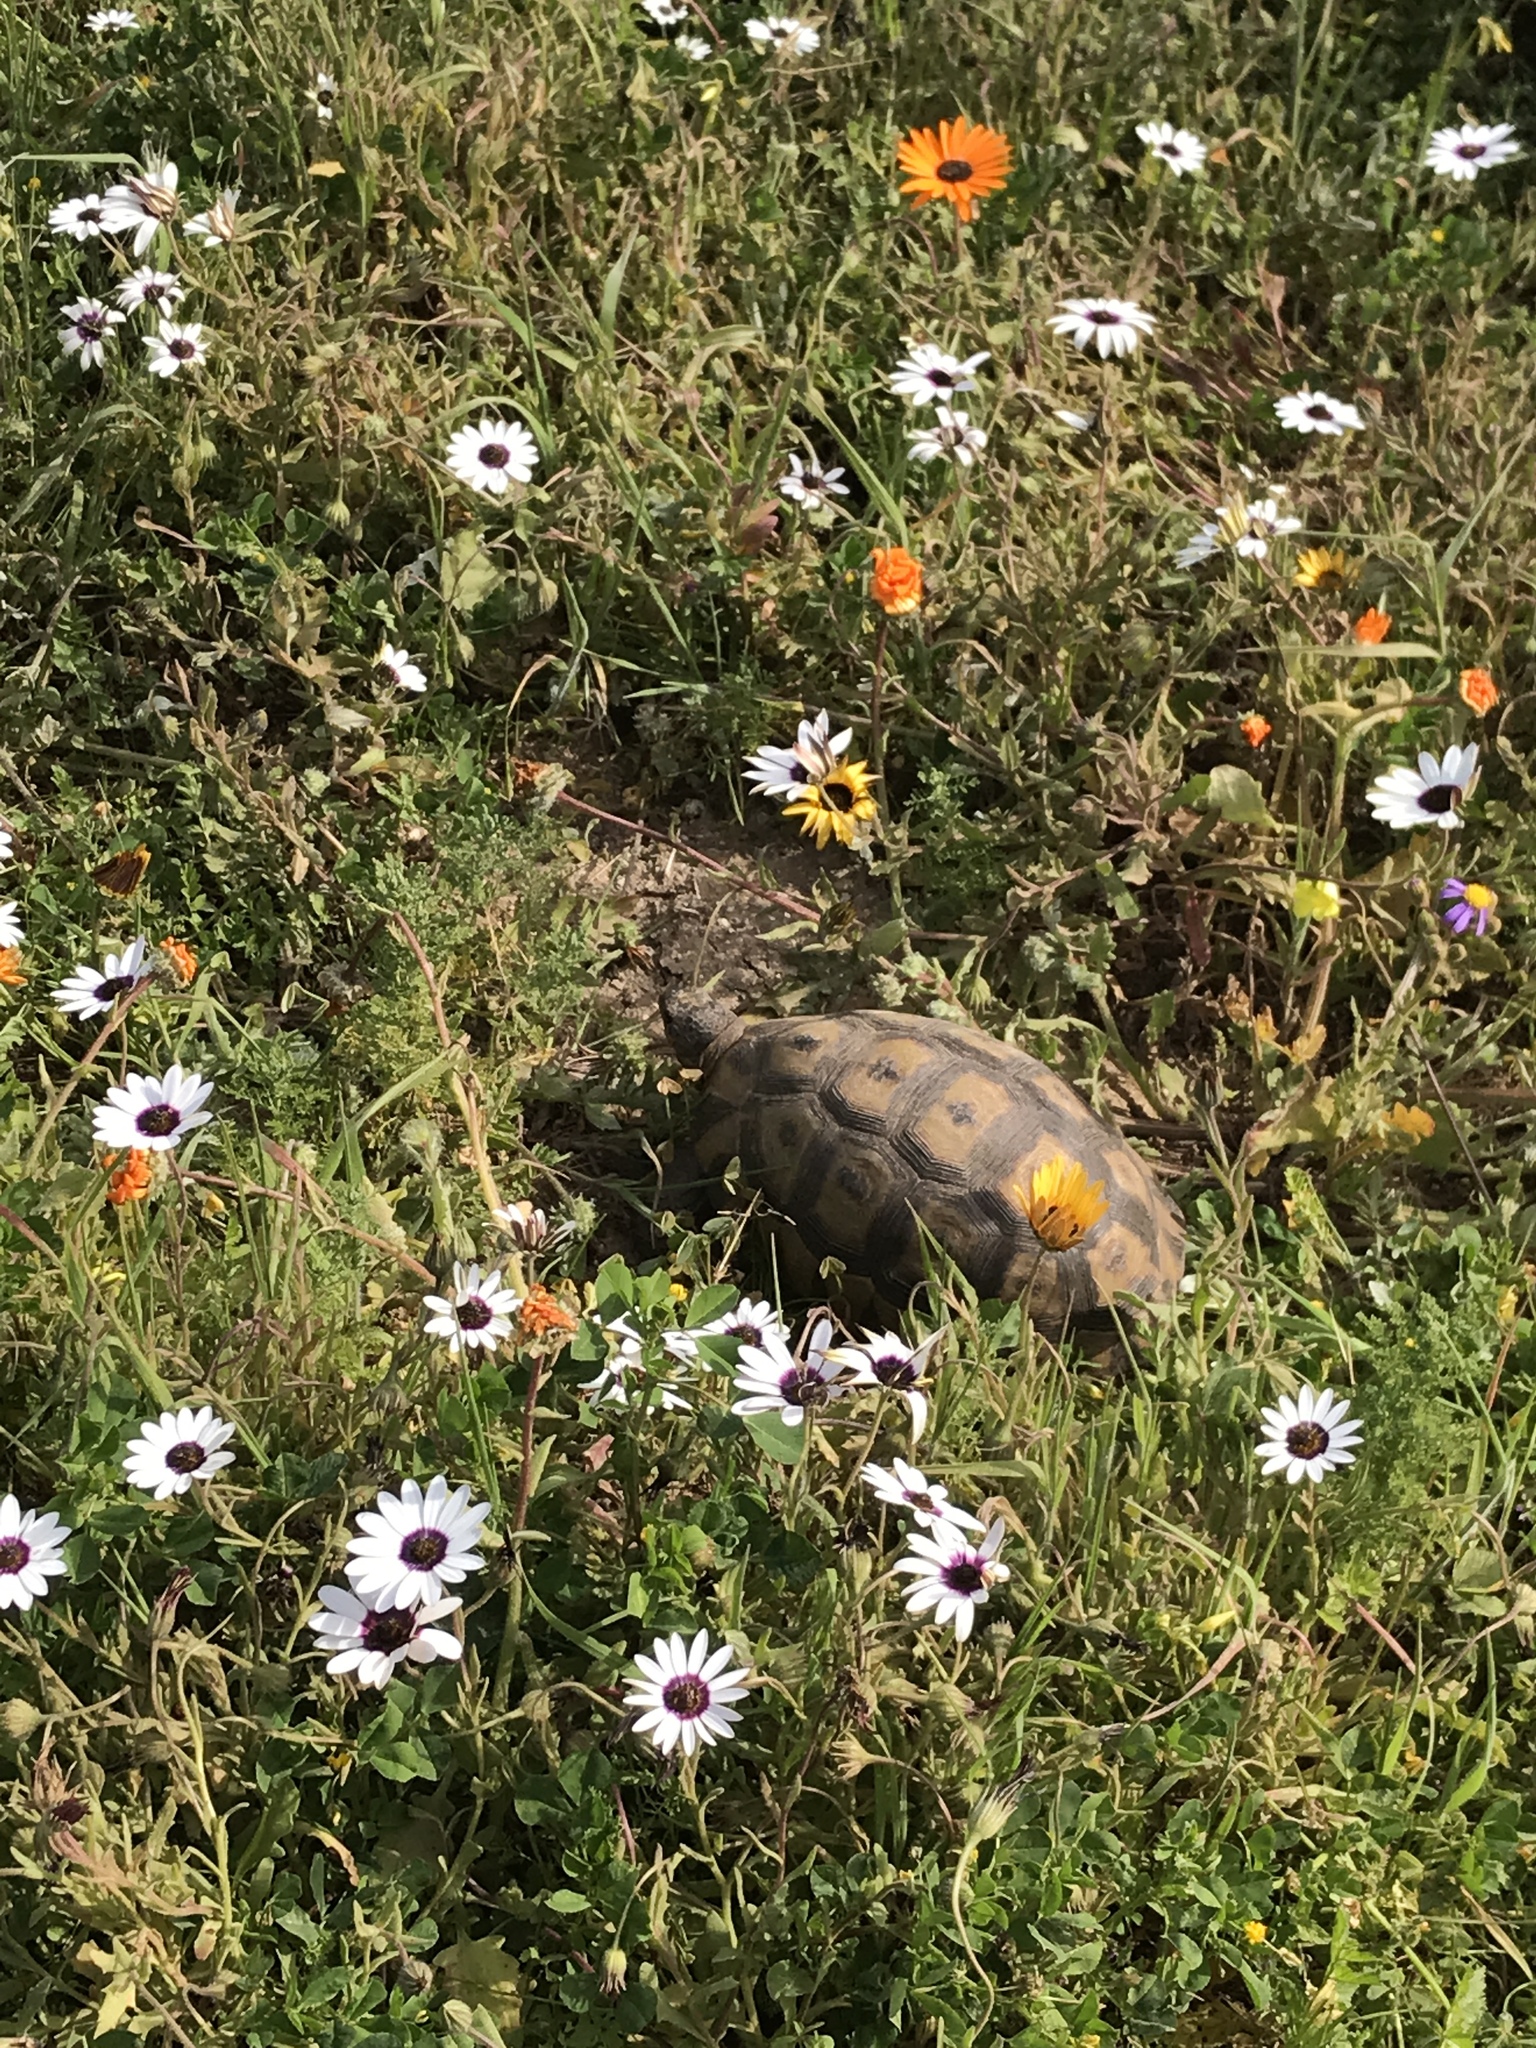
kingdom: Animalia
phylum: Chordata
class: Testudines
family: Testudinidae
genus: Chersina
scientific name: Chersina angulata
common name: South african bowsprit tortoise
